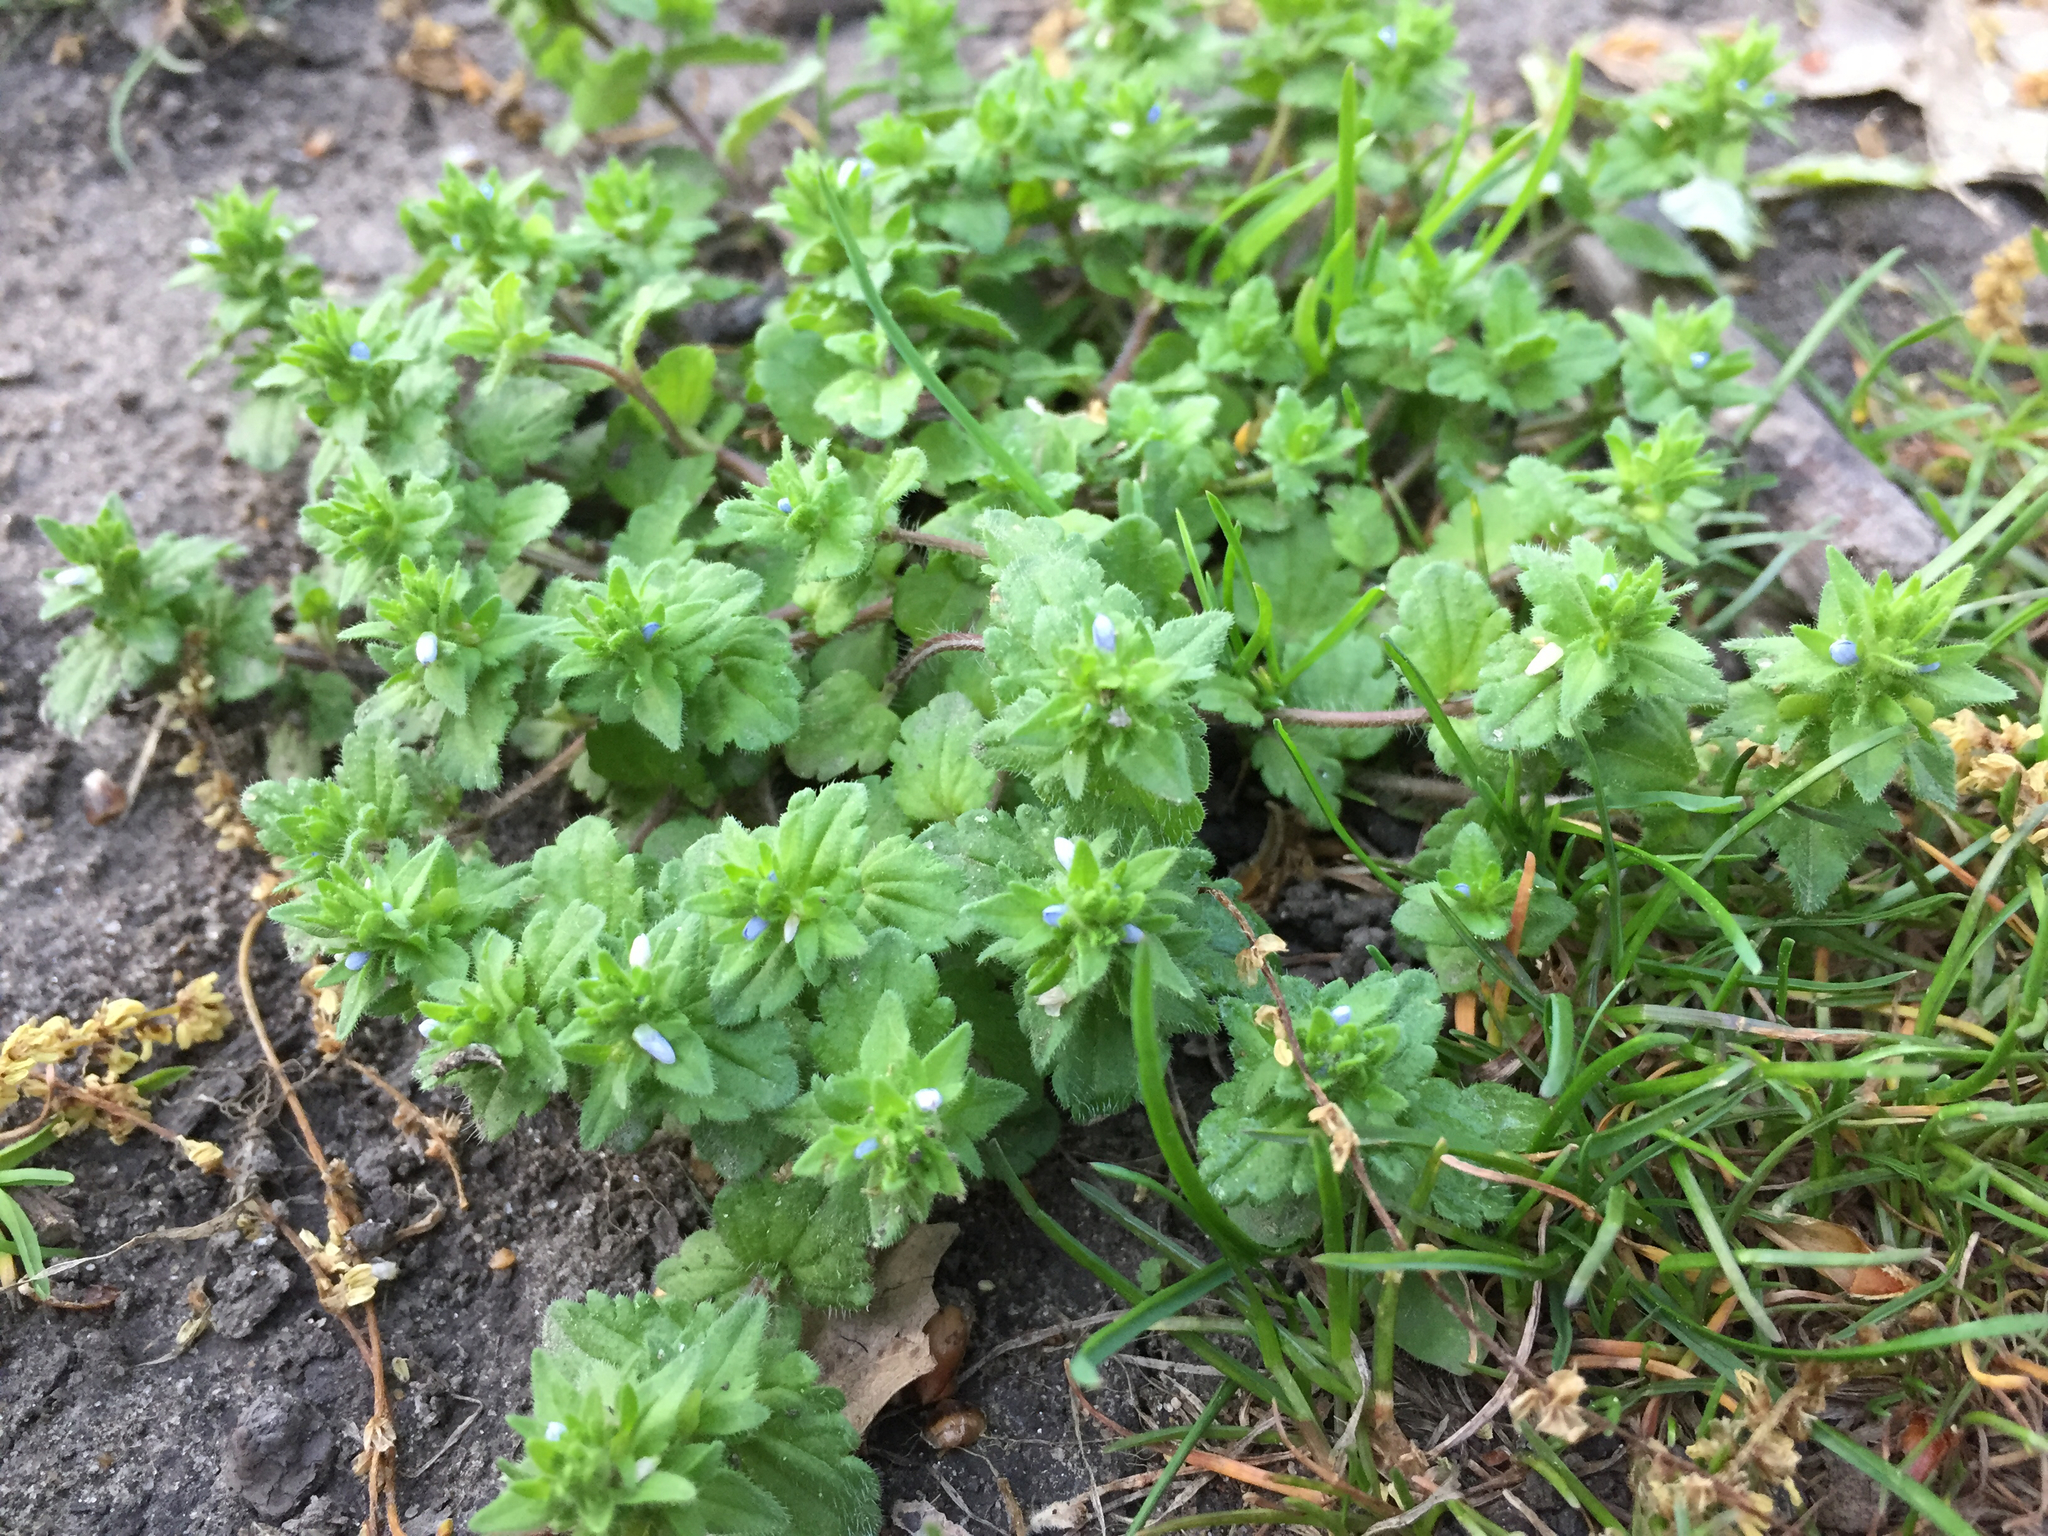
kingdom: Plantae
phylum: Tracheophyta
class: Magnoliopsida
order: Lamiales
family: Plantaginaceae
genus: Veronica
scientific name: Veronica arvensis
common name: Corn speedwell
